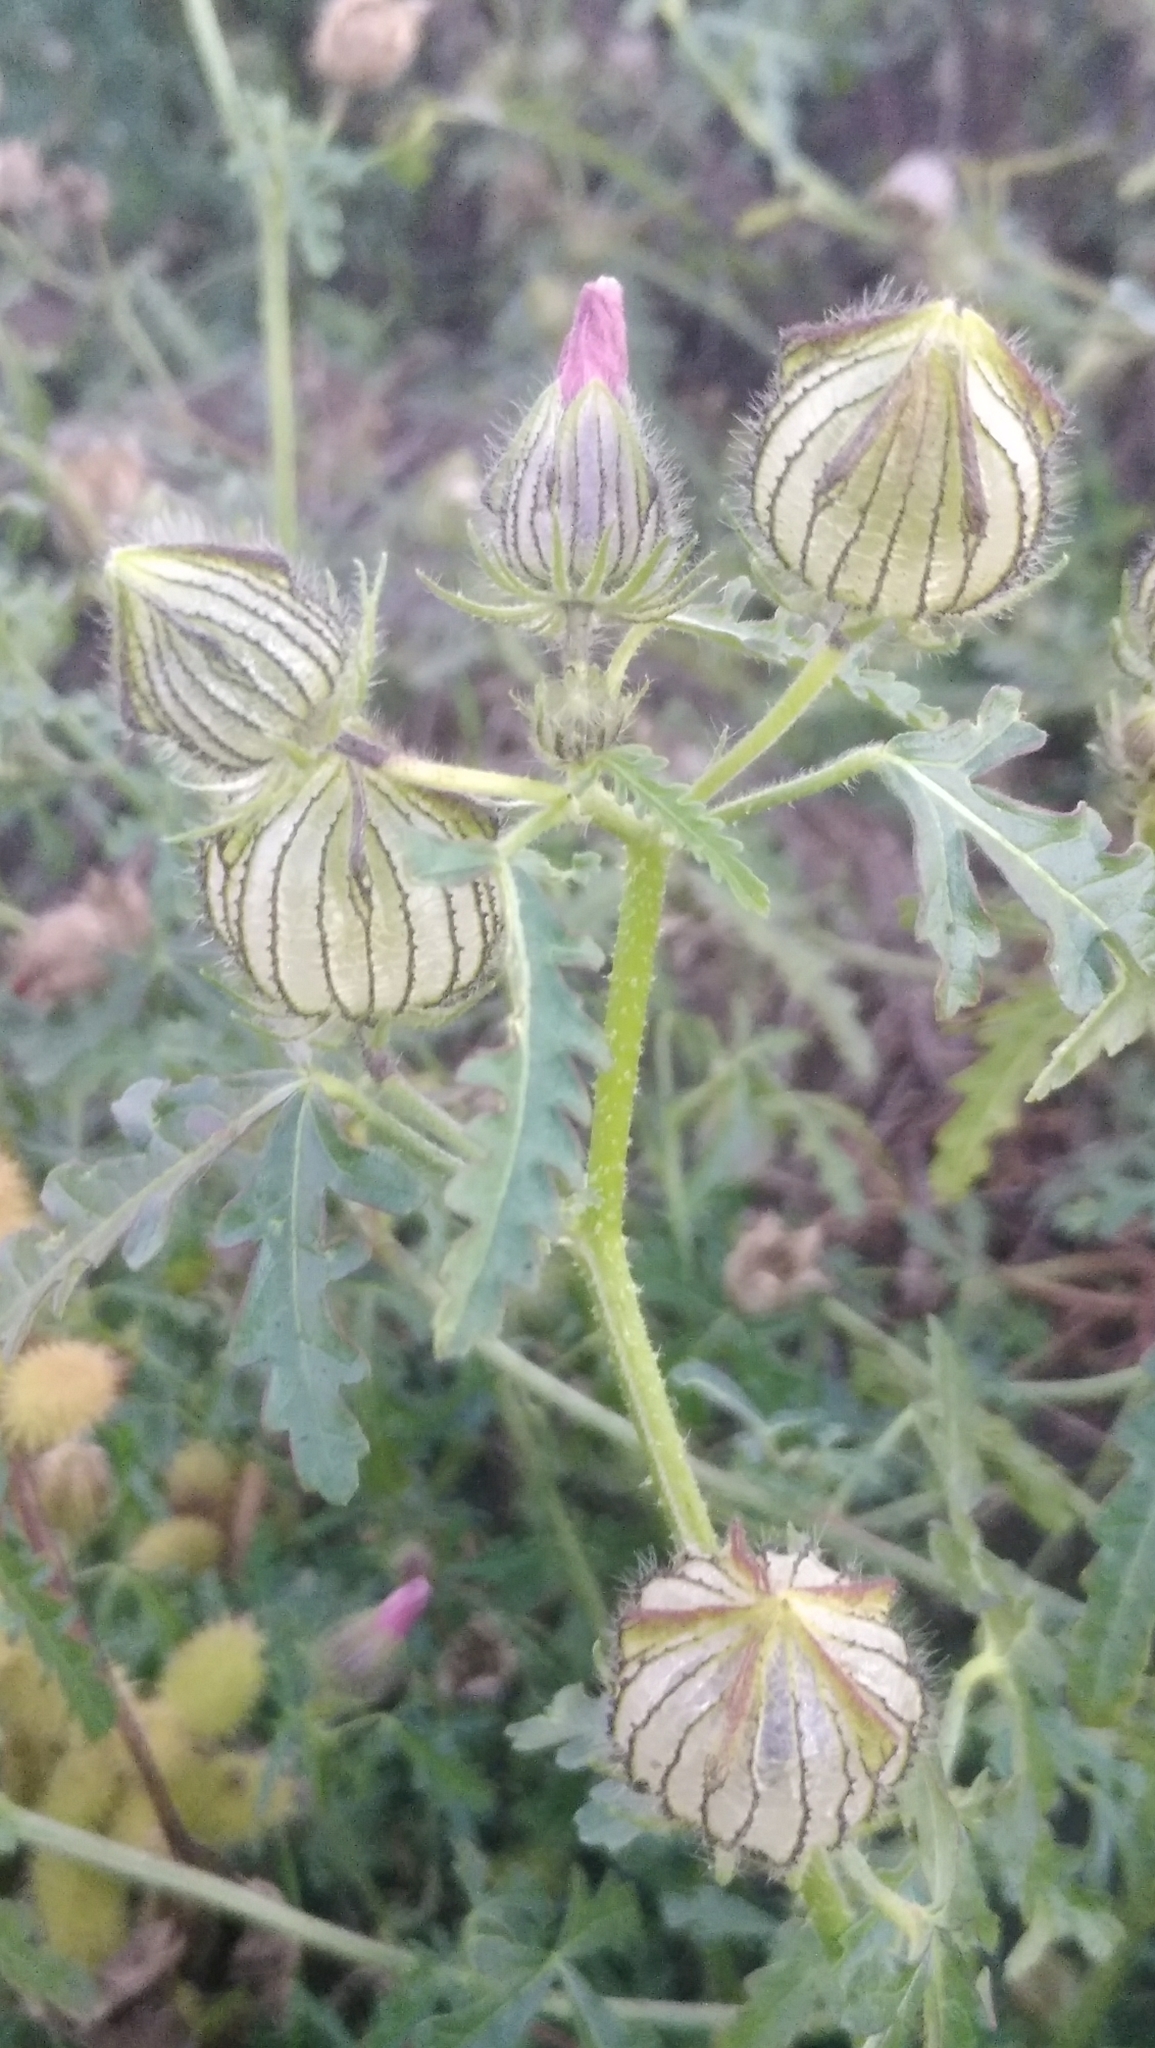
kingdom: Plantae
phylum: Tracheophyta
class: Magnoliopsida
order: Malvales
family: Malvaceae
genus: Hibiscus
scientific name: Hibiscus trionum
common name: Bladder ketmia
